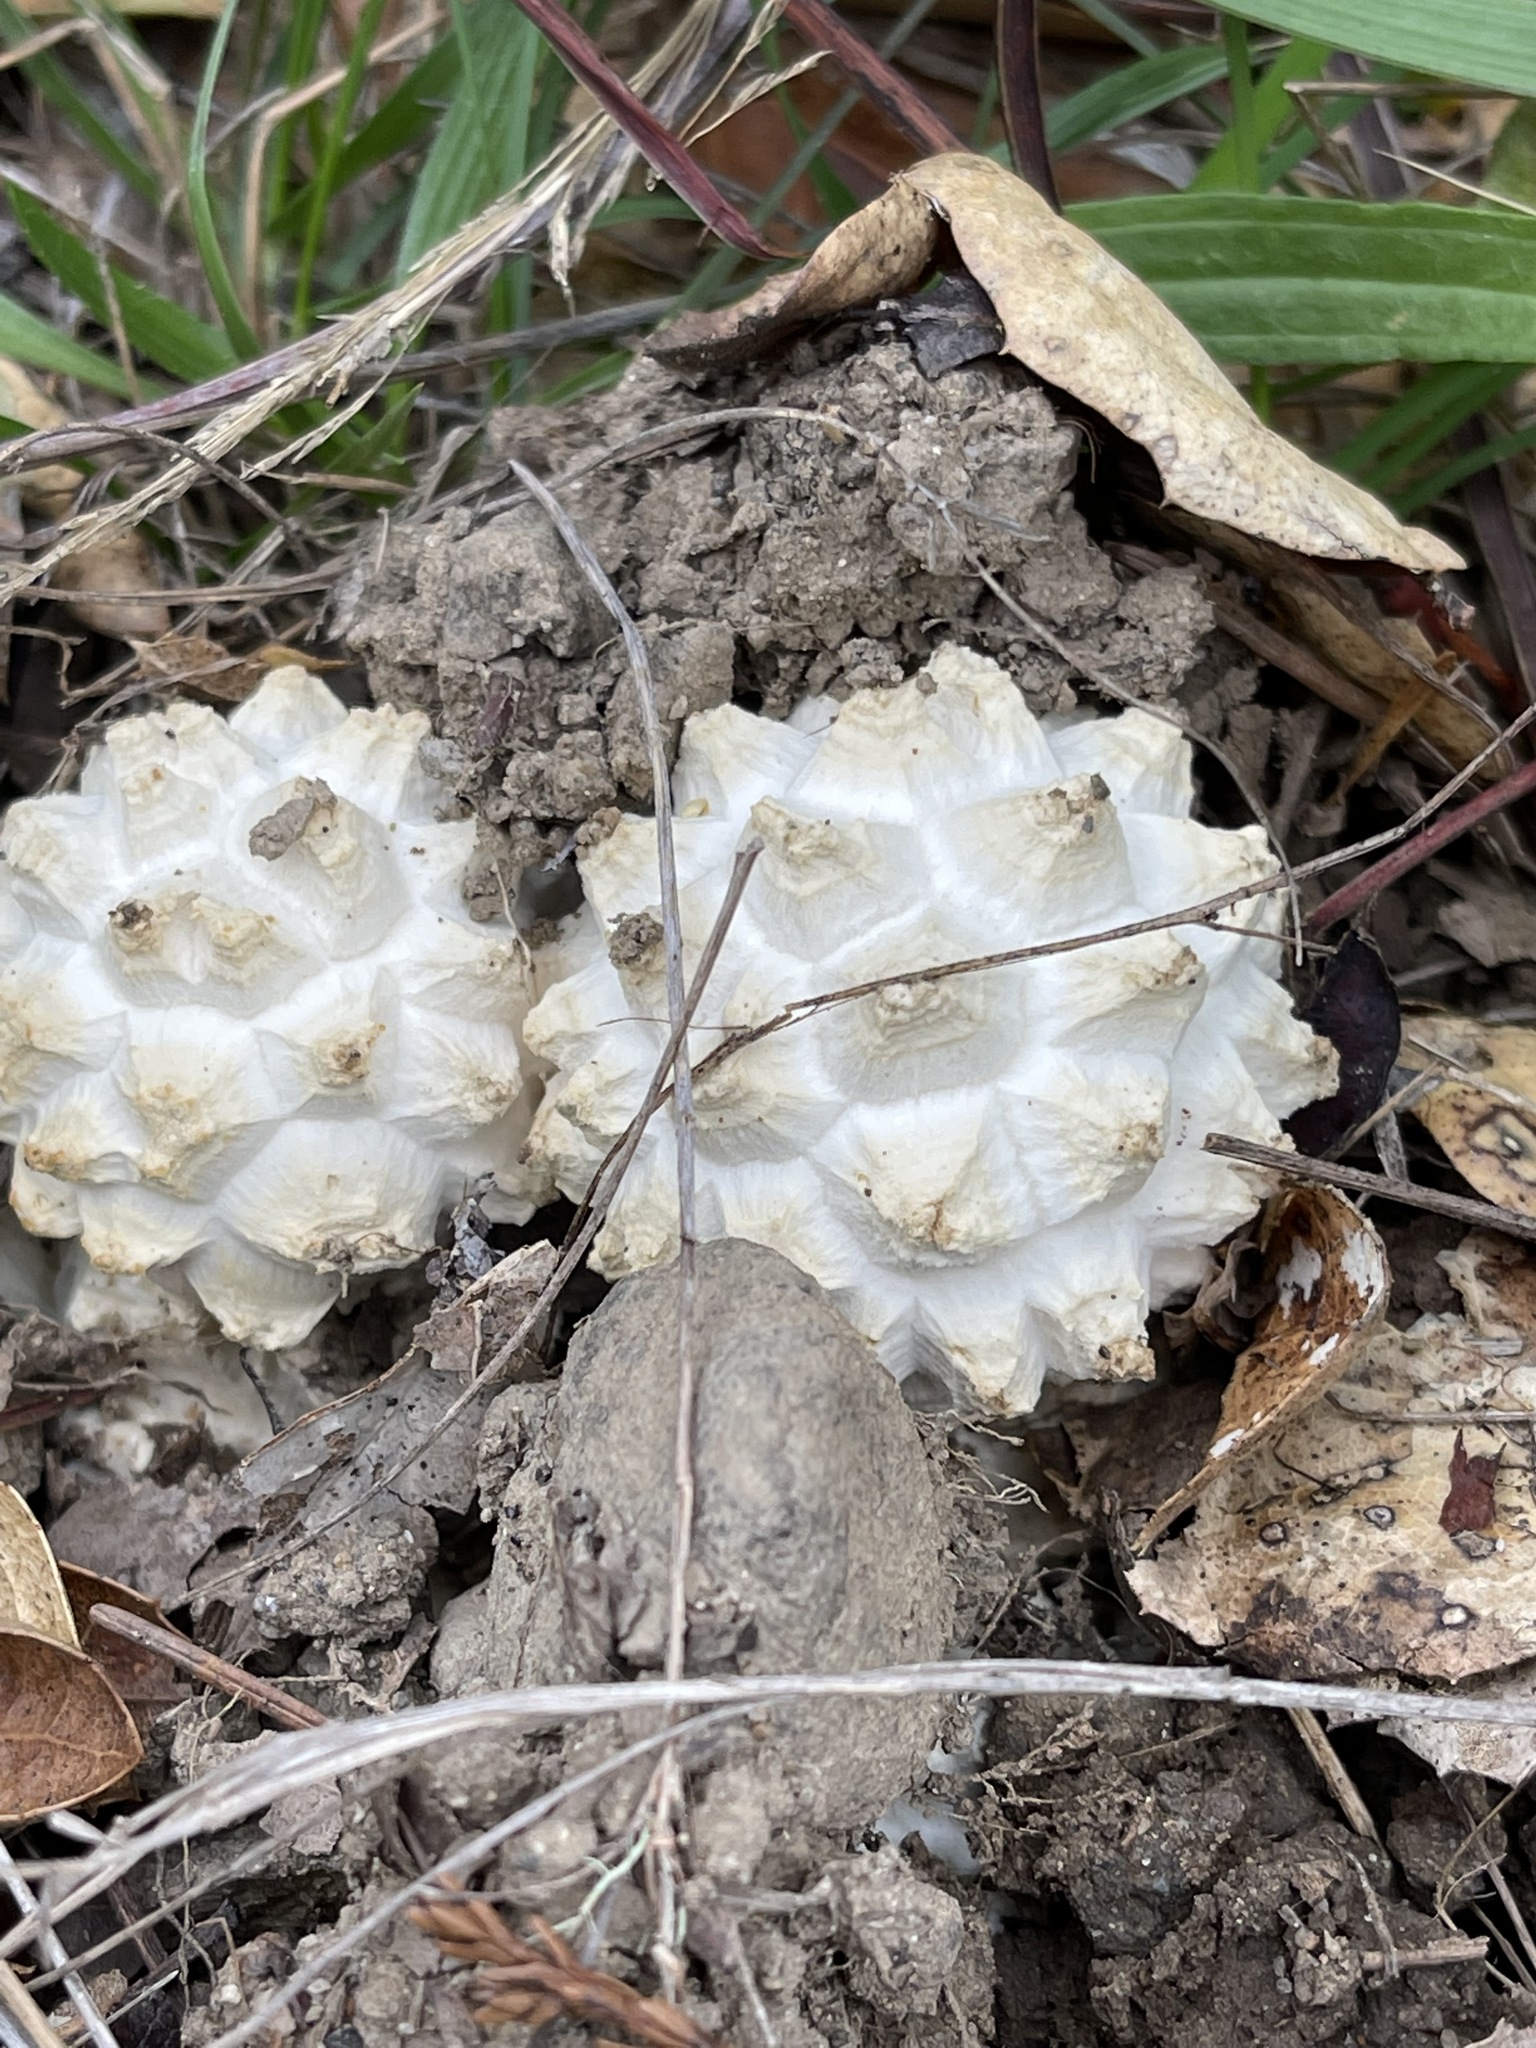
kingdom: Fungi
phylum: Basidiomycota
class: Agaricomycetes
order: Agaricales
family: Amanitaceae
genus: Amanita
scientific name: Amanita magniverrucata
